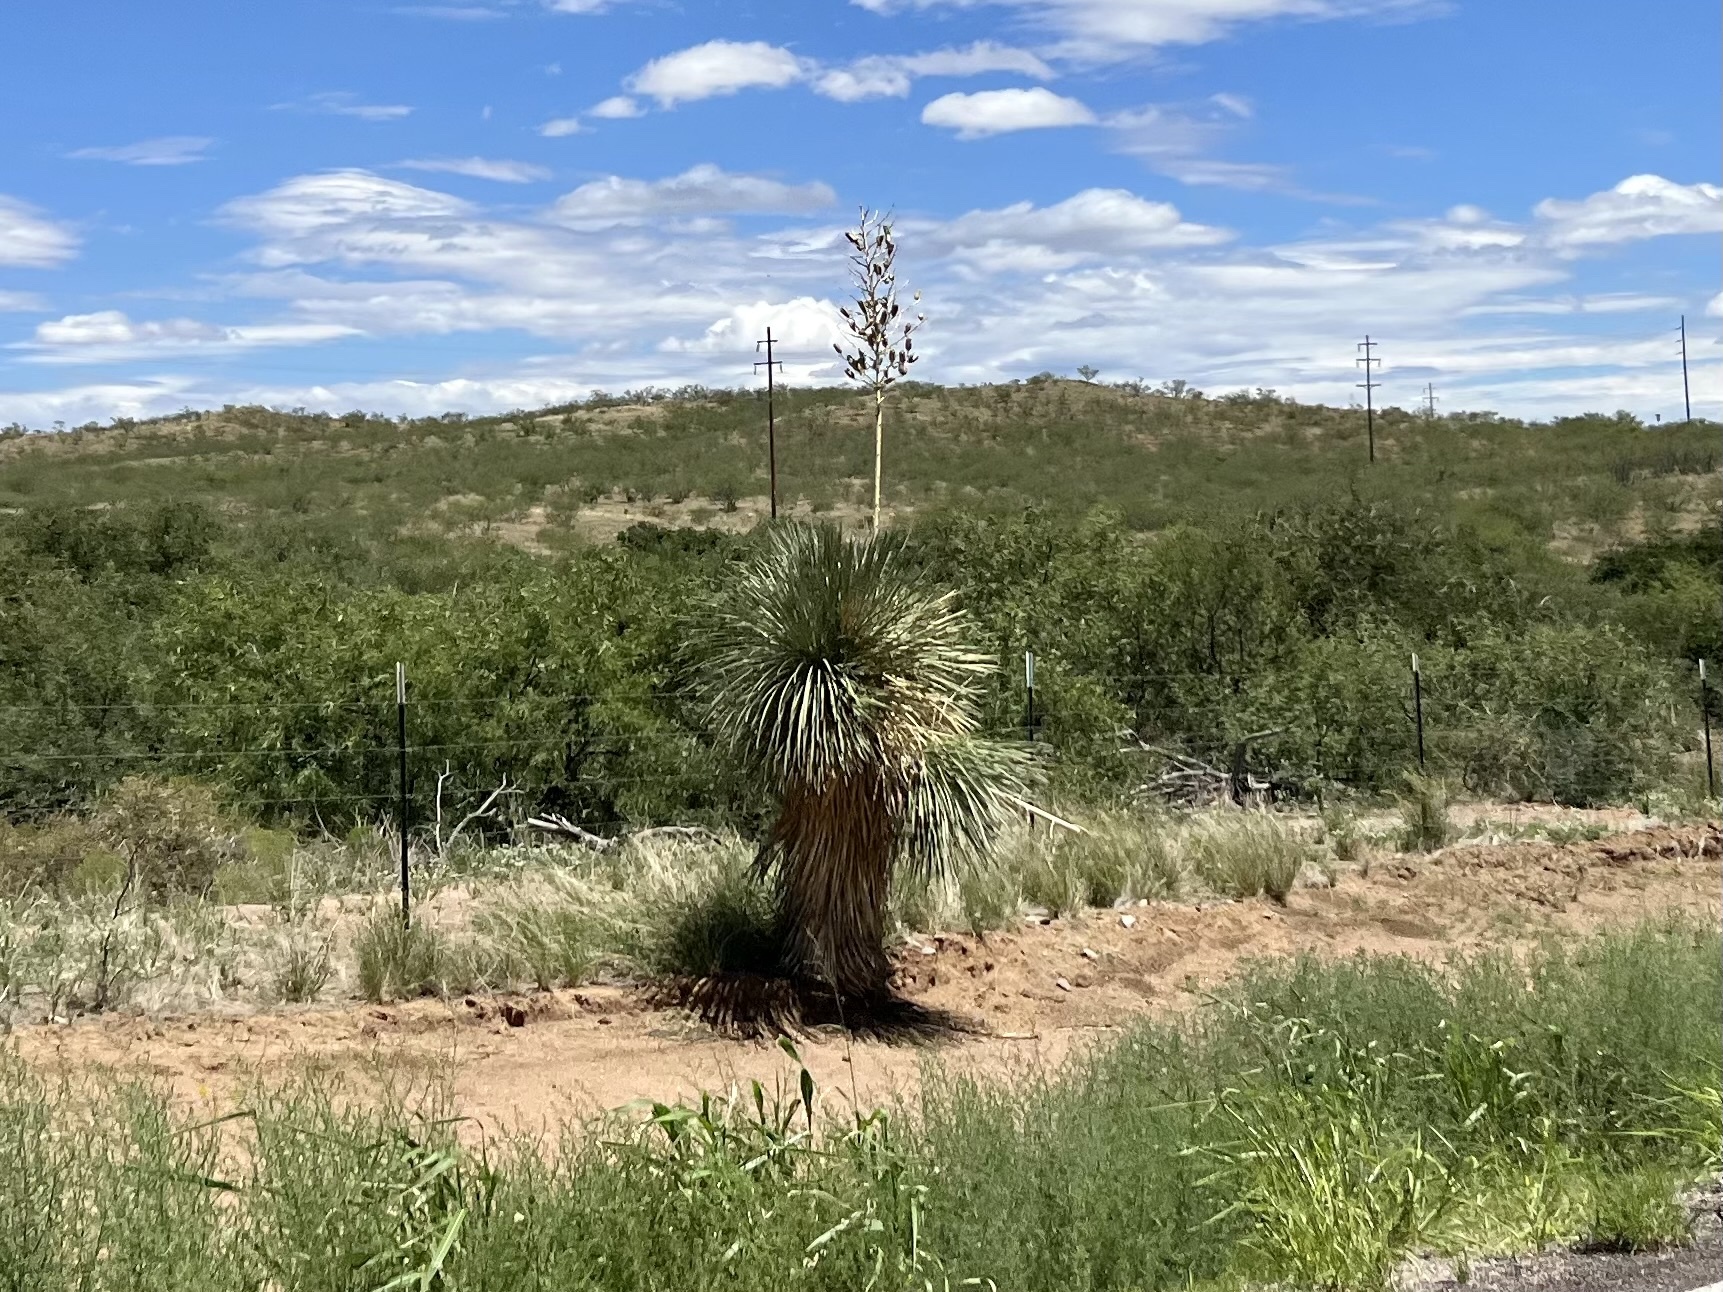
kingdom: Plantae
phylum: Tracheophyta
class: Liliopsida
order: Asparagales
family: Asparagaceae
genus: Yucca
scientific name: Yucca elata
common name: Palmella
